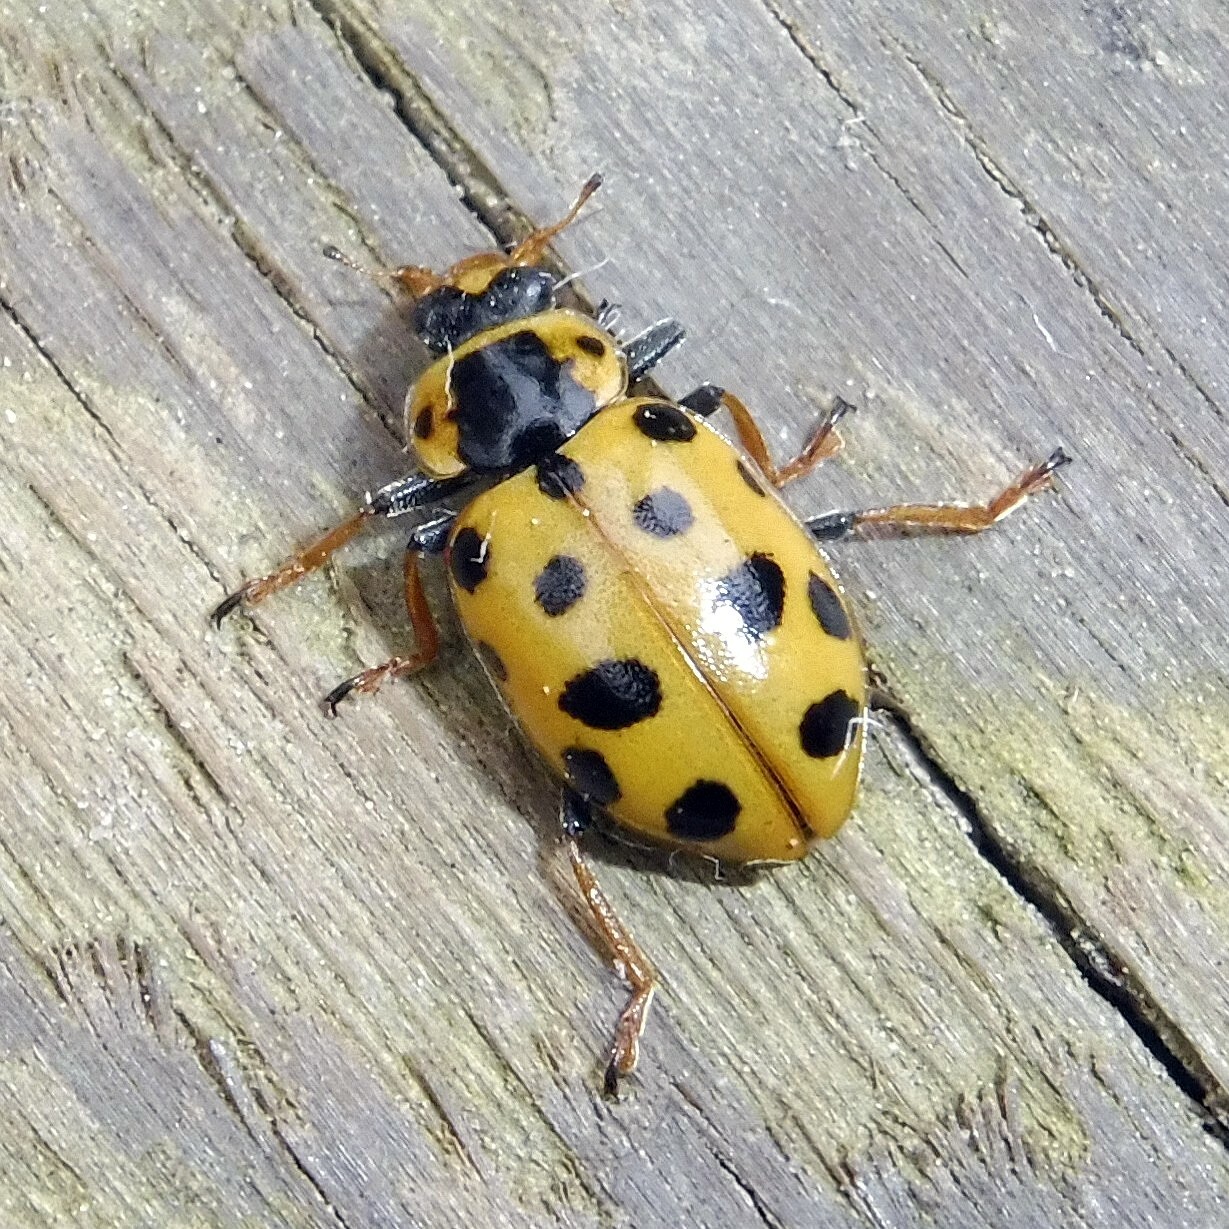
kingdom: Animalia
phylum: Arthropoda
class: Insecta
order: Coleoptera
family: Coccinellidae
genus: Hippodamia
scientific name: Hippodamia tredecimpunctata
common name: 13-spot ladybird
